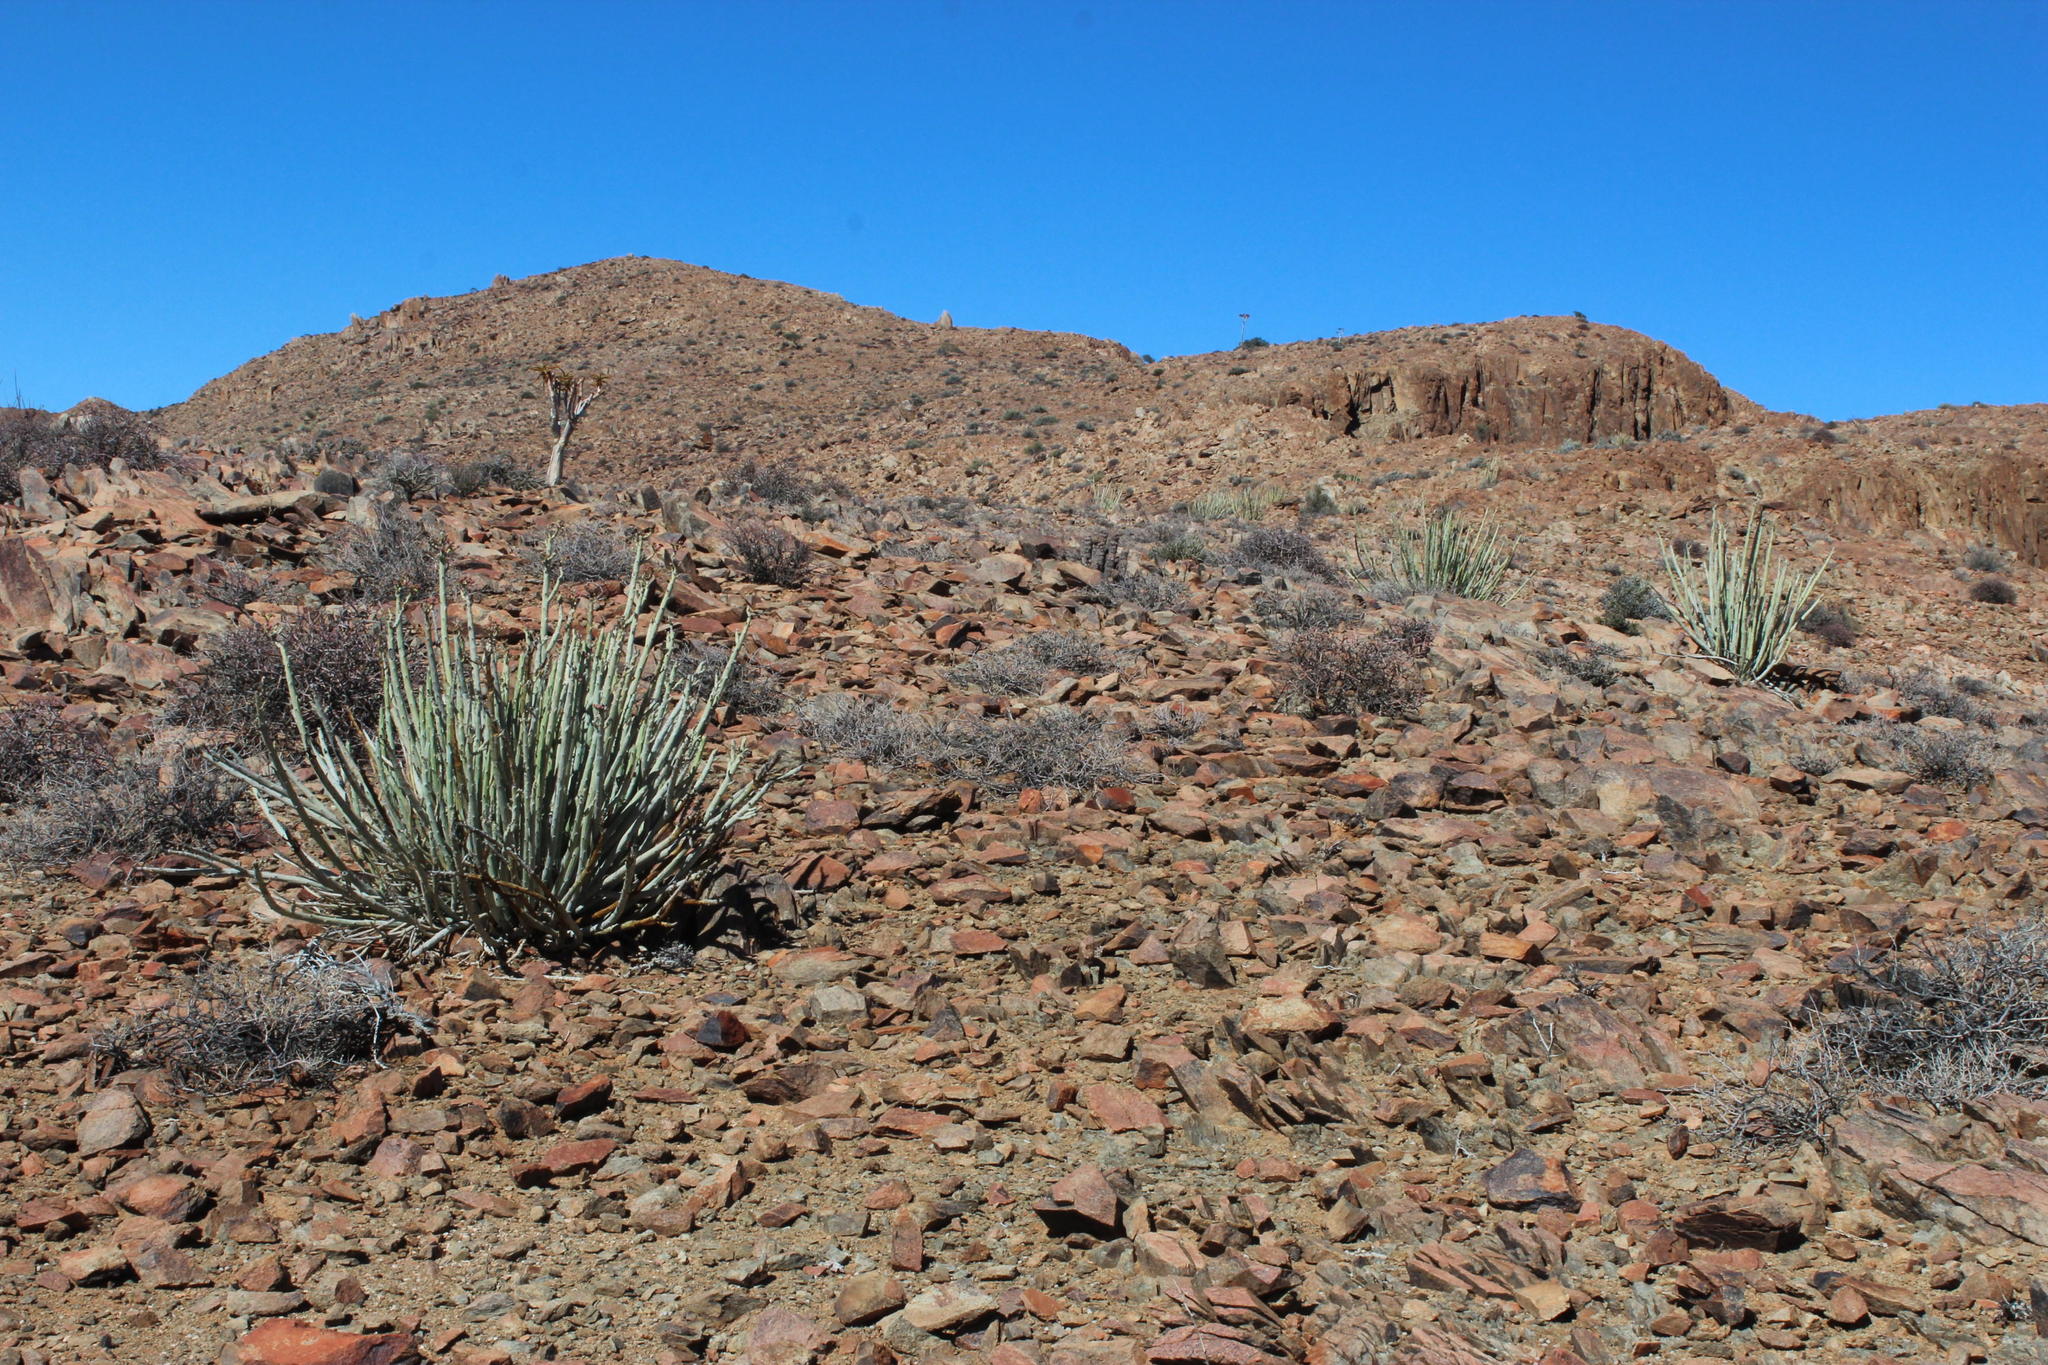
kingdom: Plantae
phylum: Tracheophyta
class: Magnoliopsida
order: Malpighiales
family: Euphorbiaceae
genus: Euphorbia
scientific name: Euphorbia dregeana
